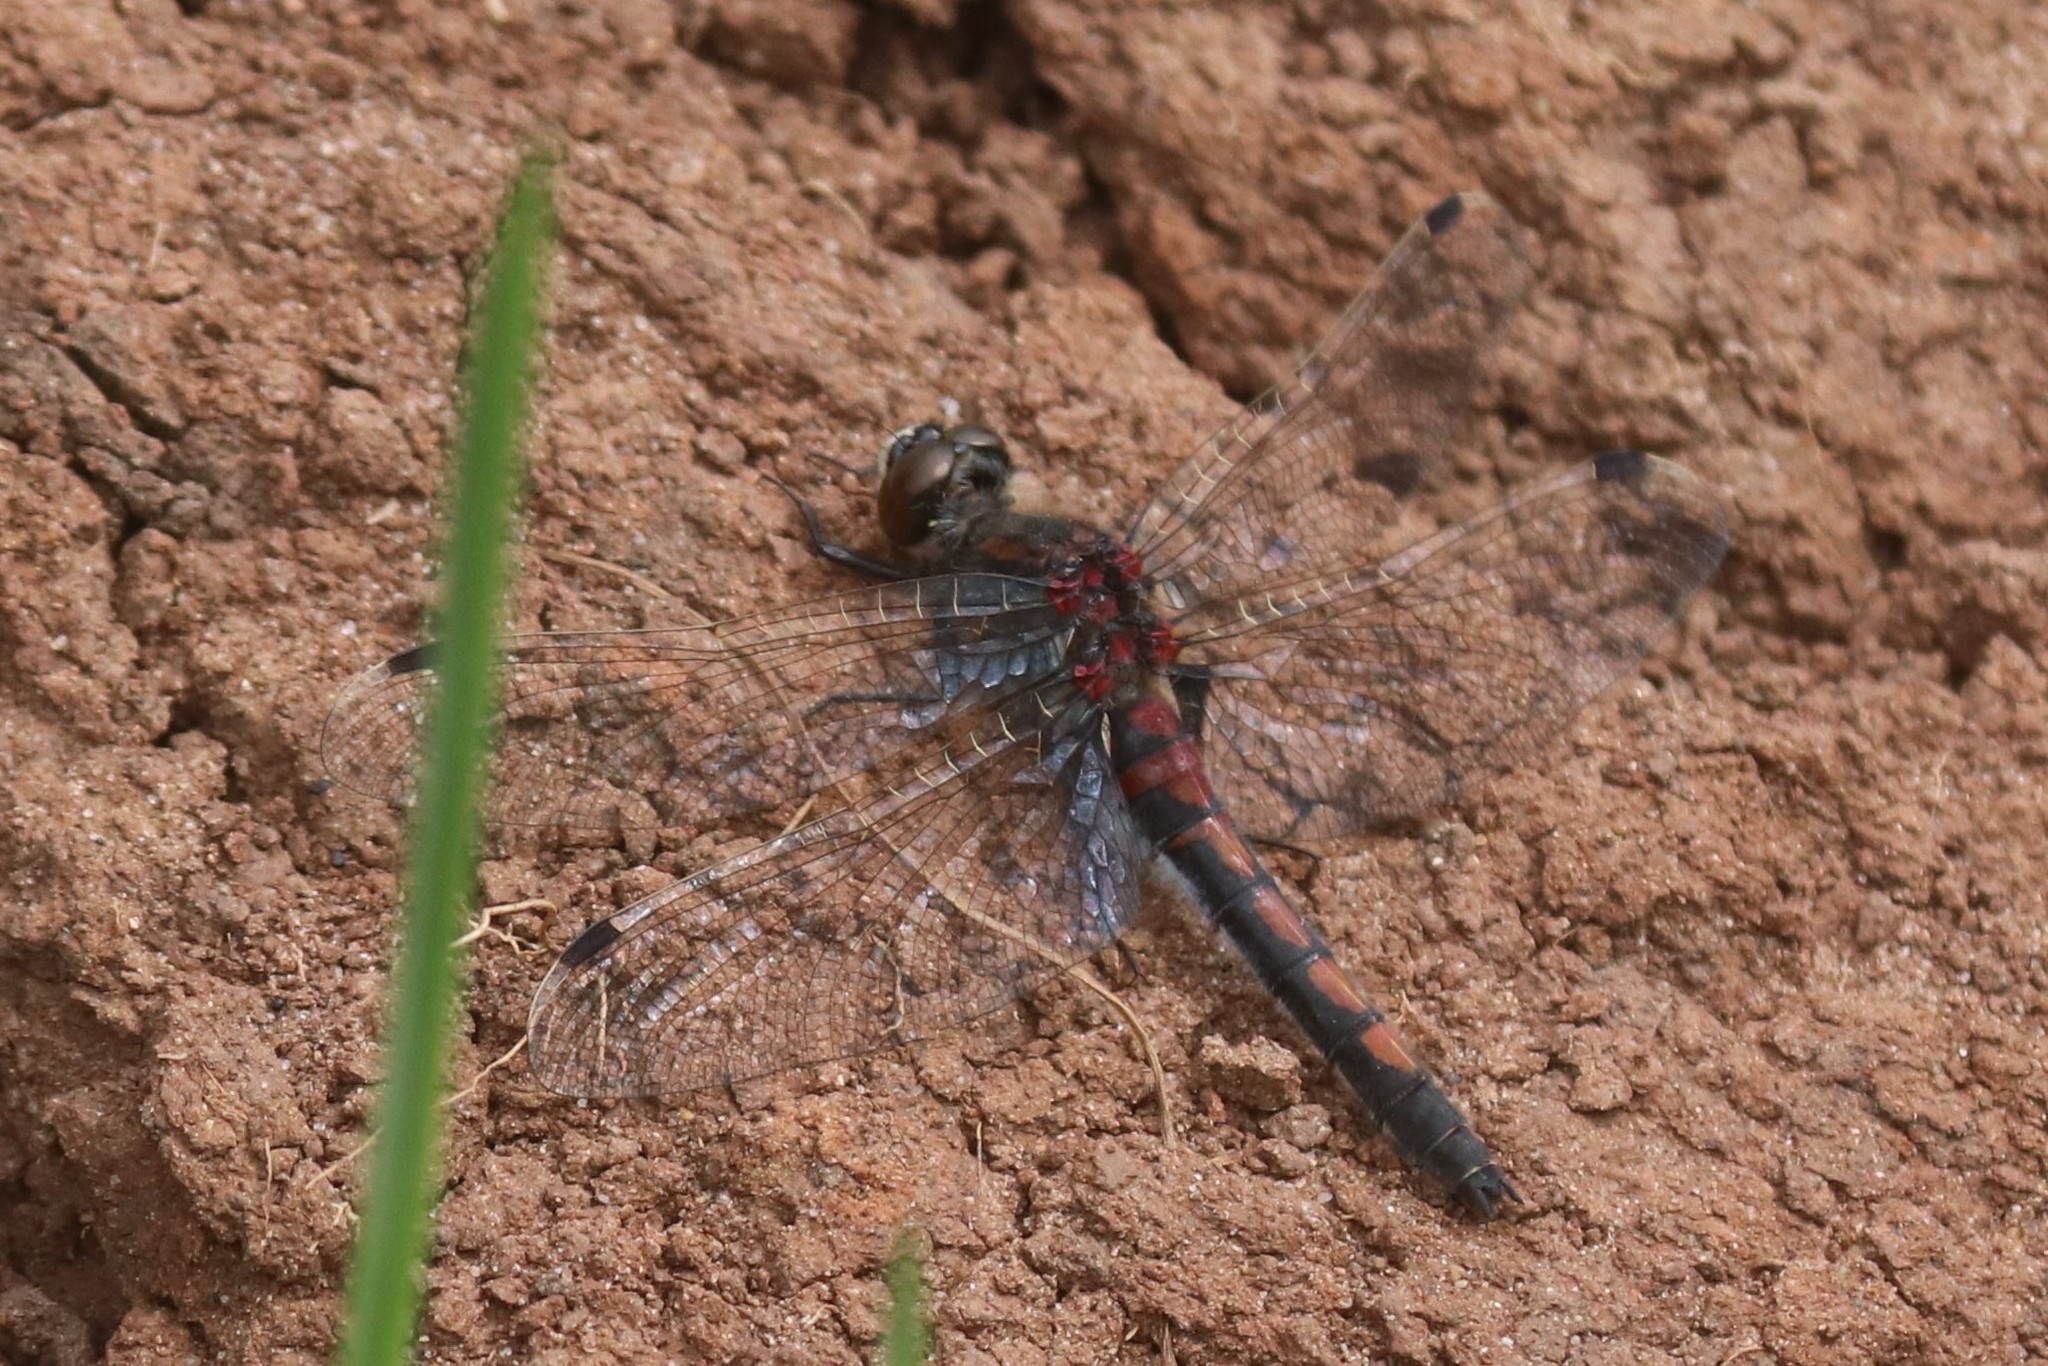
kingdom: Animalia
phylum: Arthropoda
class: Insecta
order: Odonata
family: Libellulidae
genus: Leucorrhinia
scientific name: Leucorrhinia rubicunda
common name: Ruby whiteface
